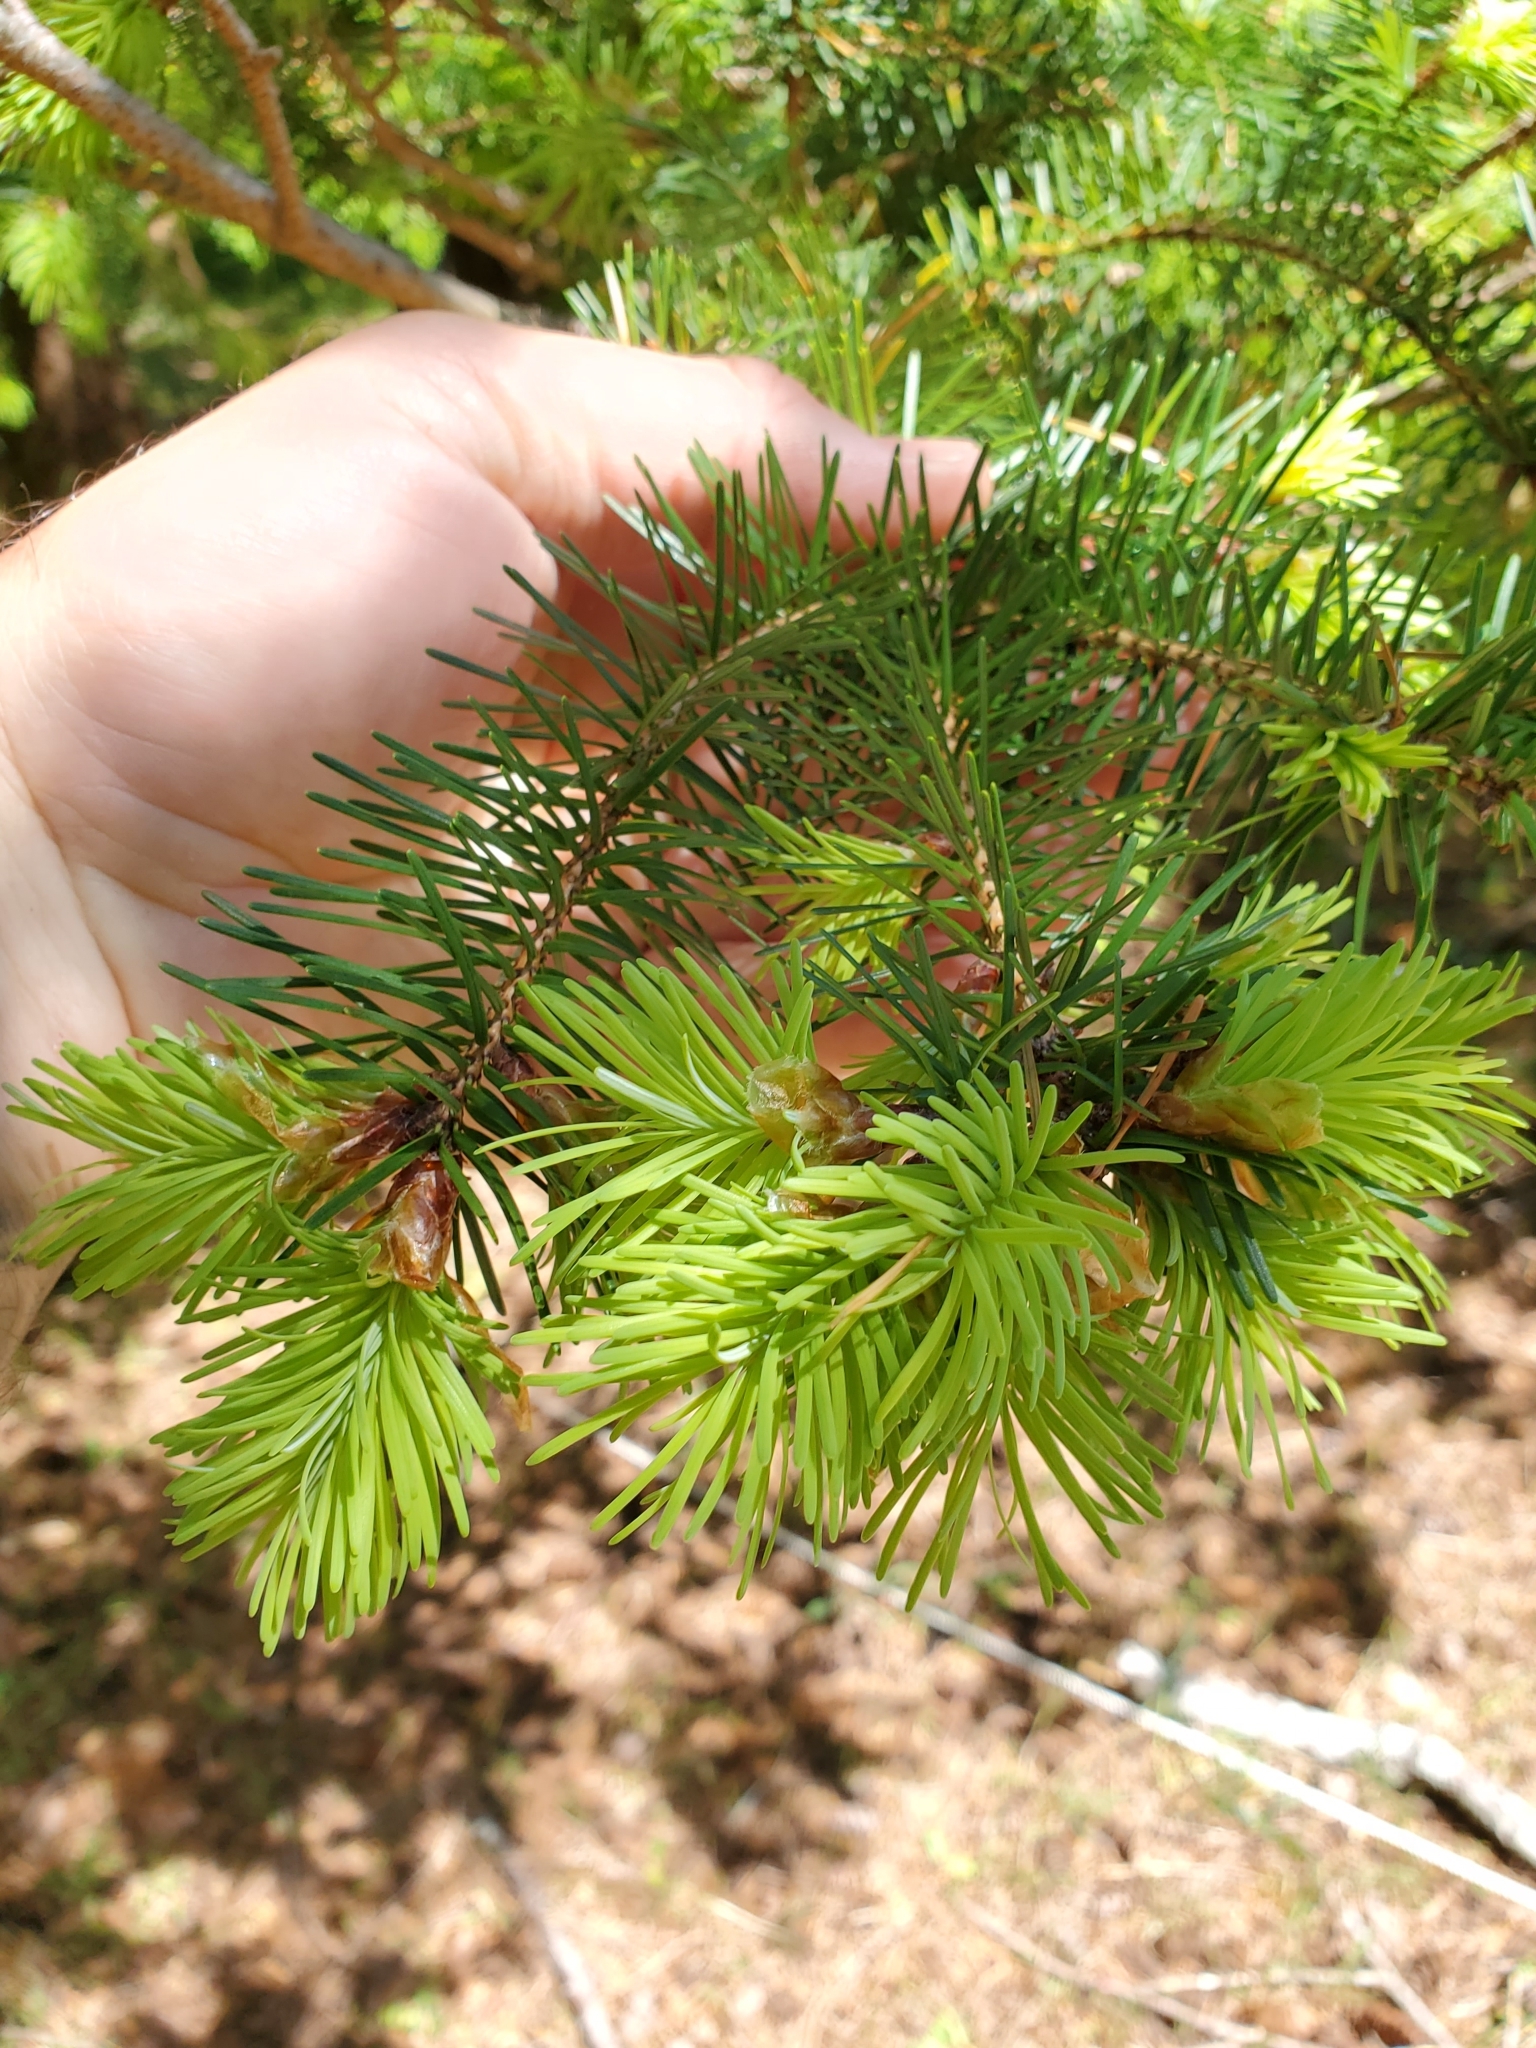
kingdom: Plantae
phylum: Tracheophyta
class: Pinopsida
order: Pinales
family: Pinaceae
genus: Pseudotsuga
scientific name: Pseudotsuga menziesii
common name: Douglas fir
